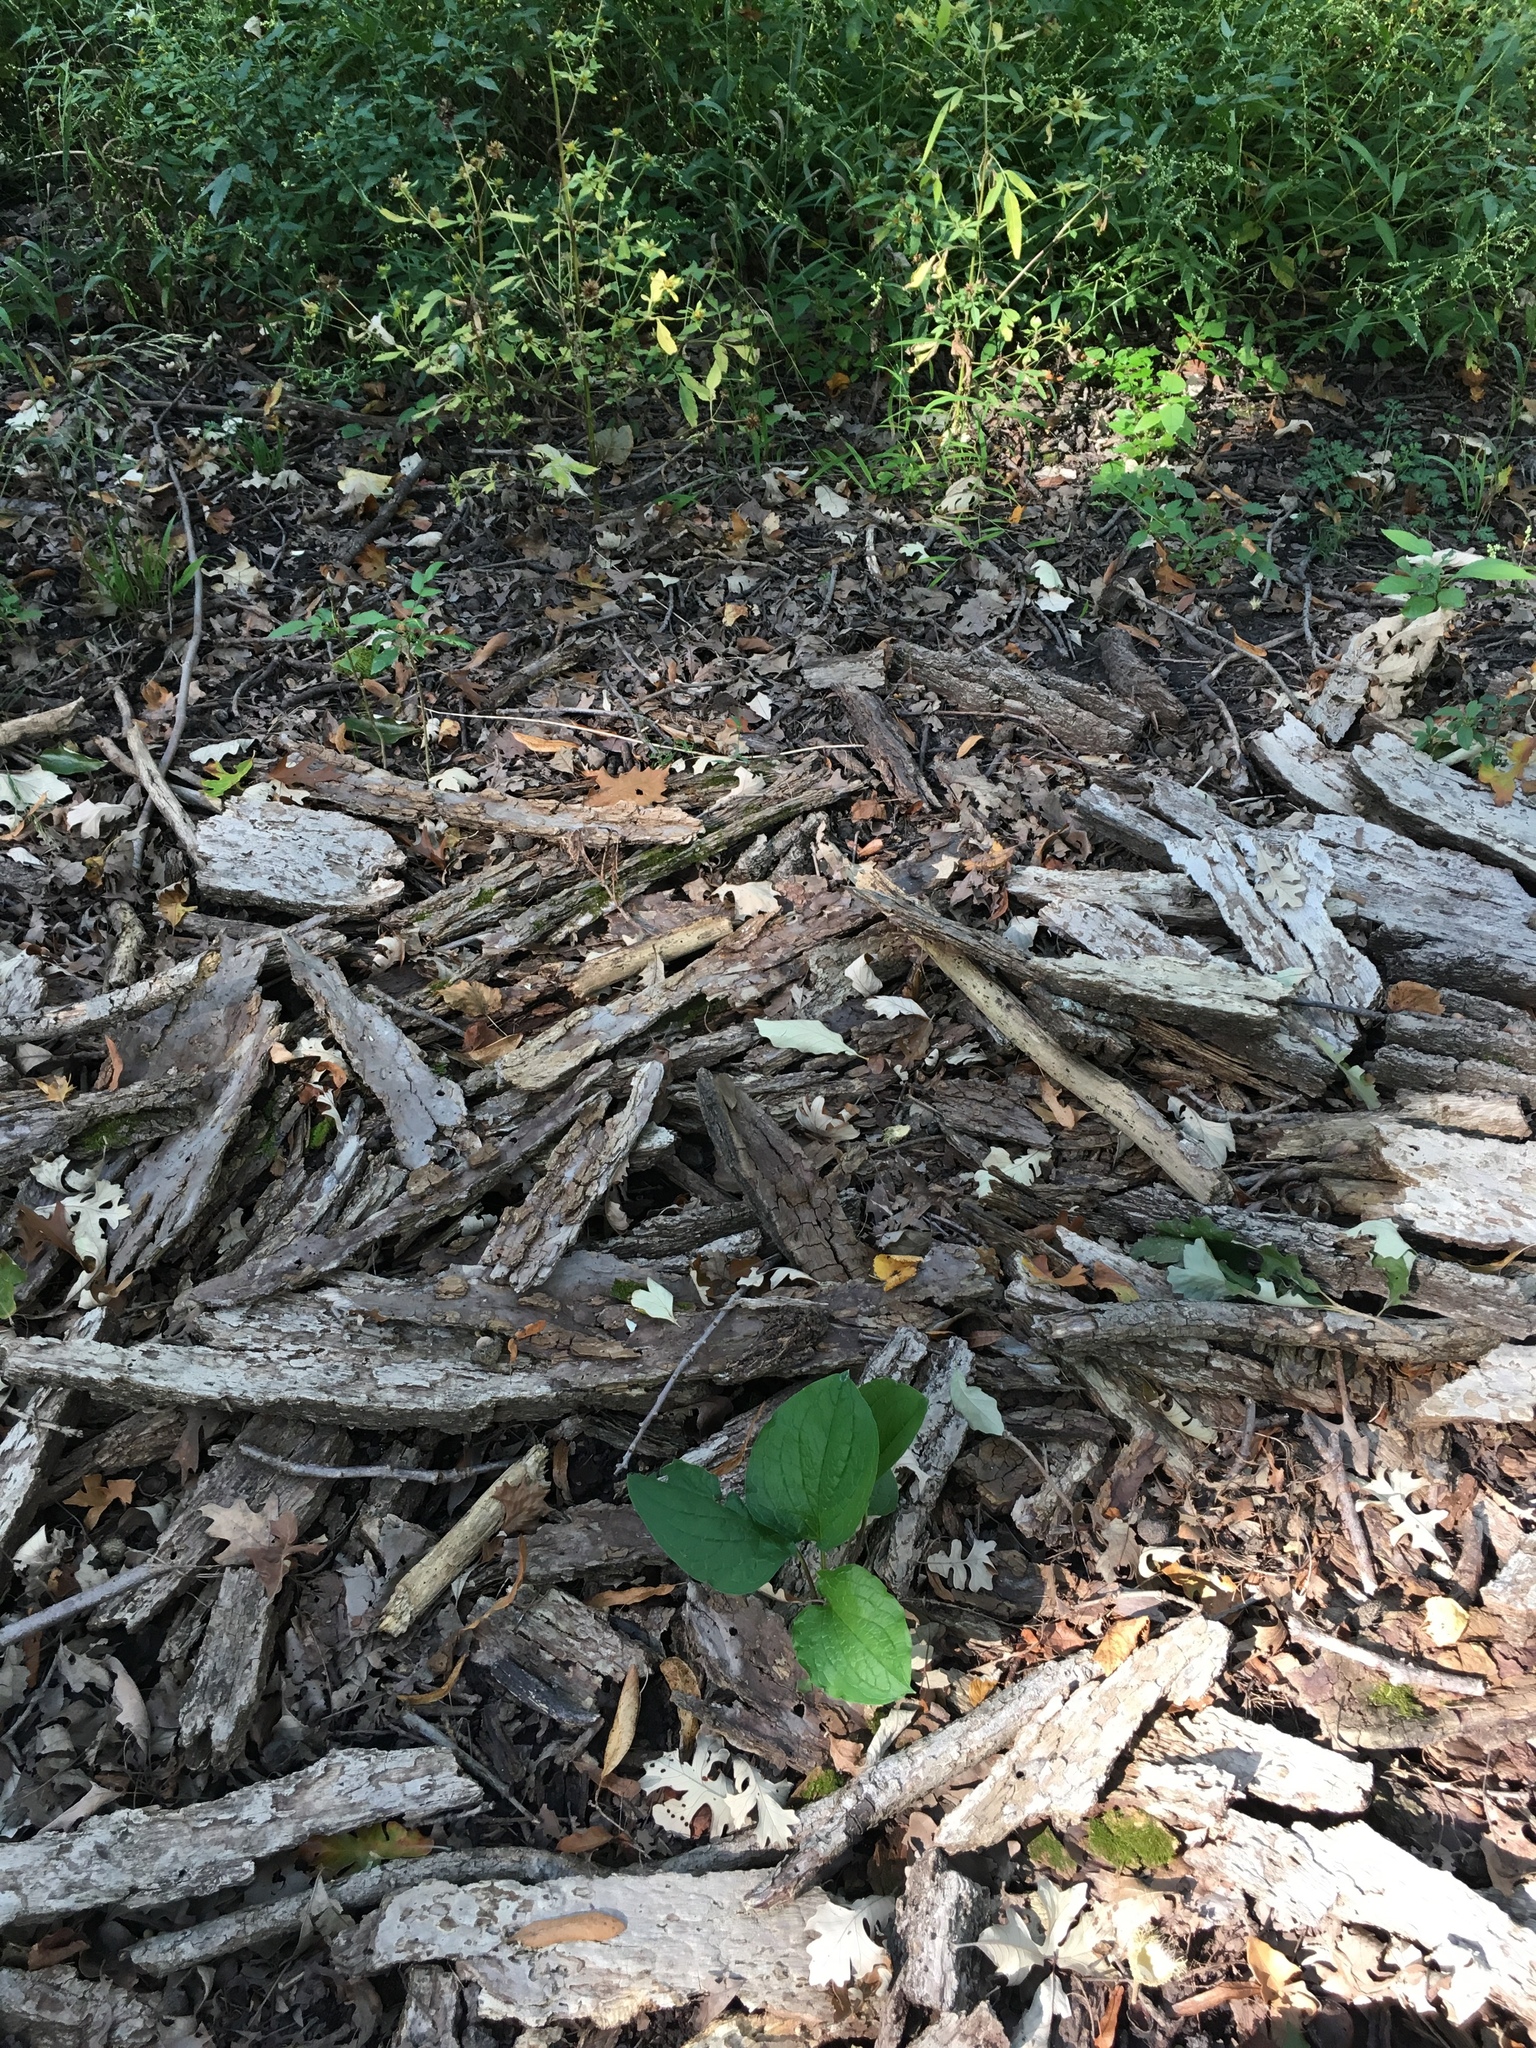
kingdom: Plantae
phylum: Tracheophyta
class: Magnoliopsida
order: Boraginales
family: Boraginaceae
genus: Hackelia
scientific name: Hackelia virginiana
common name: Beggar's-lice
